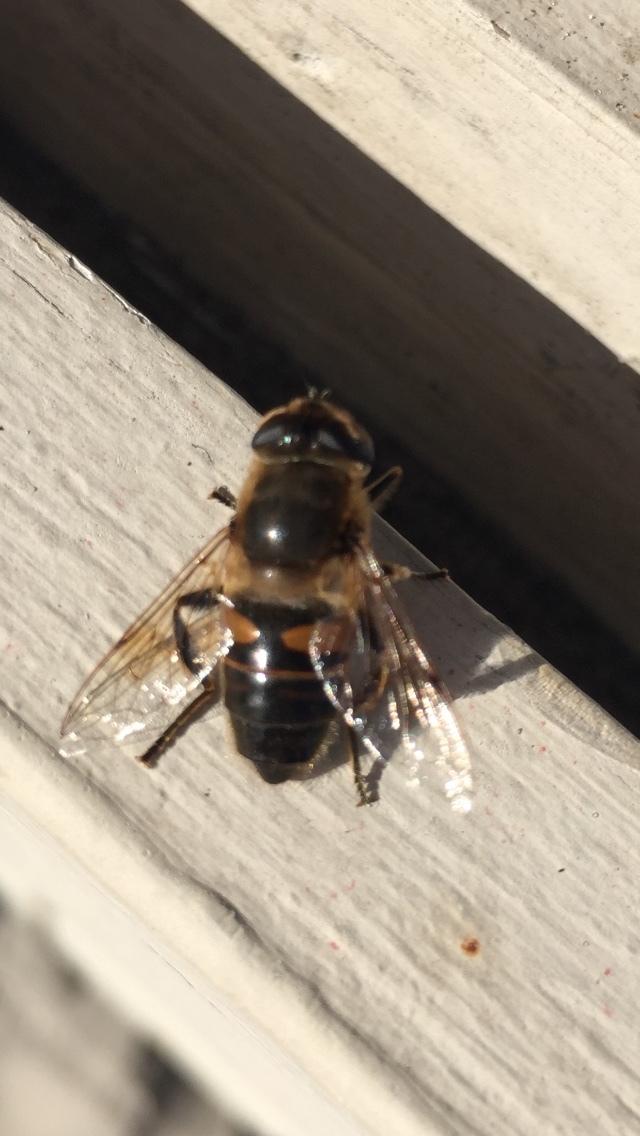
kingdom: Animalia
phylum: Arthropoda
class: Insecta
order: Diptera
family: Syrphidae
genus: Eristalis
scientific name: Eristalis tenax
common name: Drone fly
